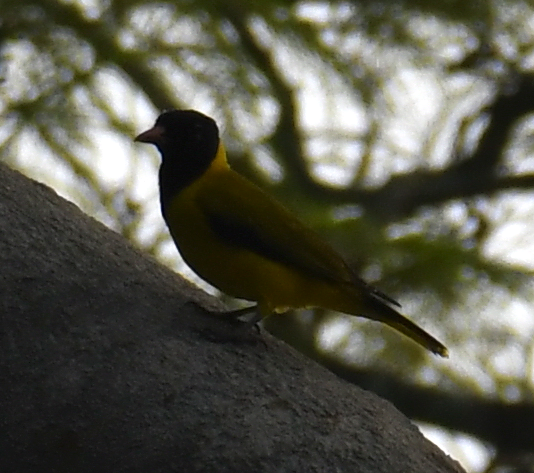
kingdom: Animalia
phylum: Chordata
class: Aves
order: Passeriformes
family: Oriolidae
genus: Oriolus
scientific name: Oriolus nigripennis
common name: Black-winged oriole
